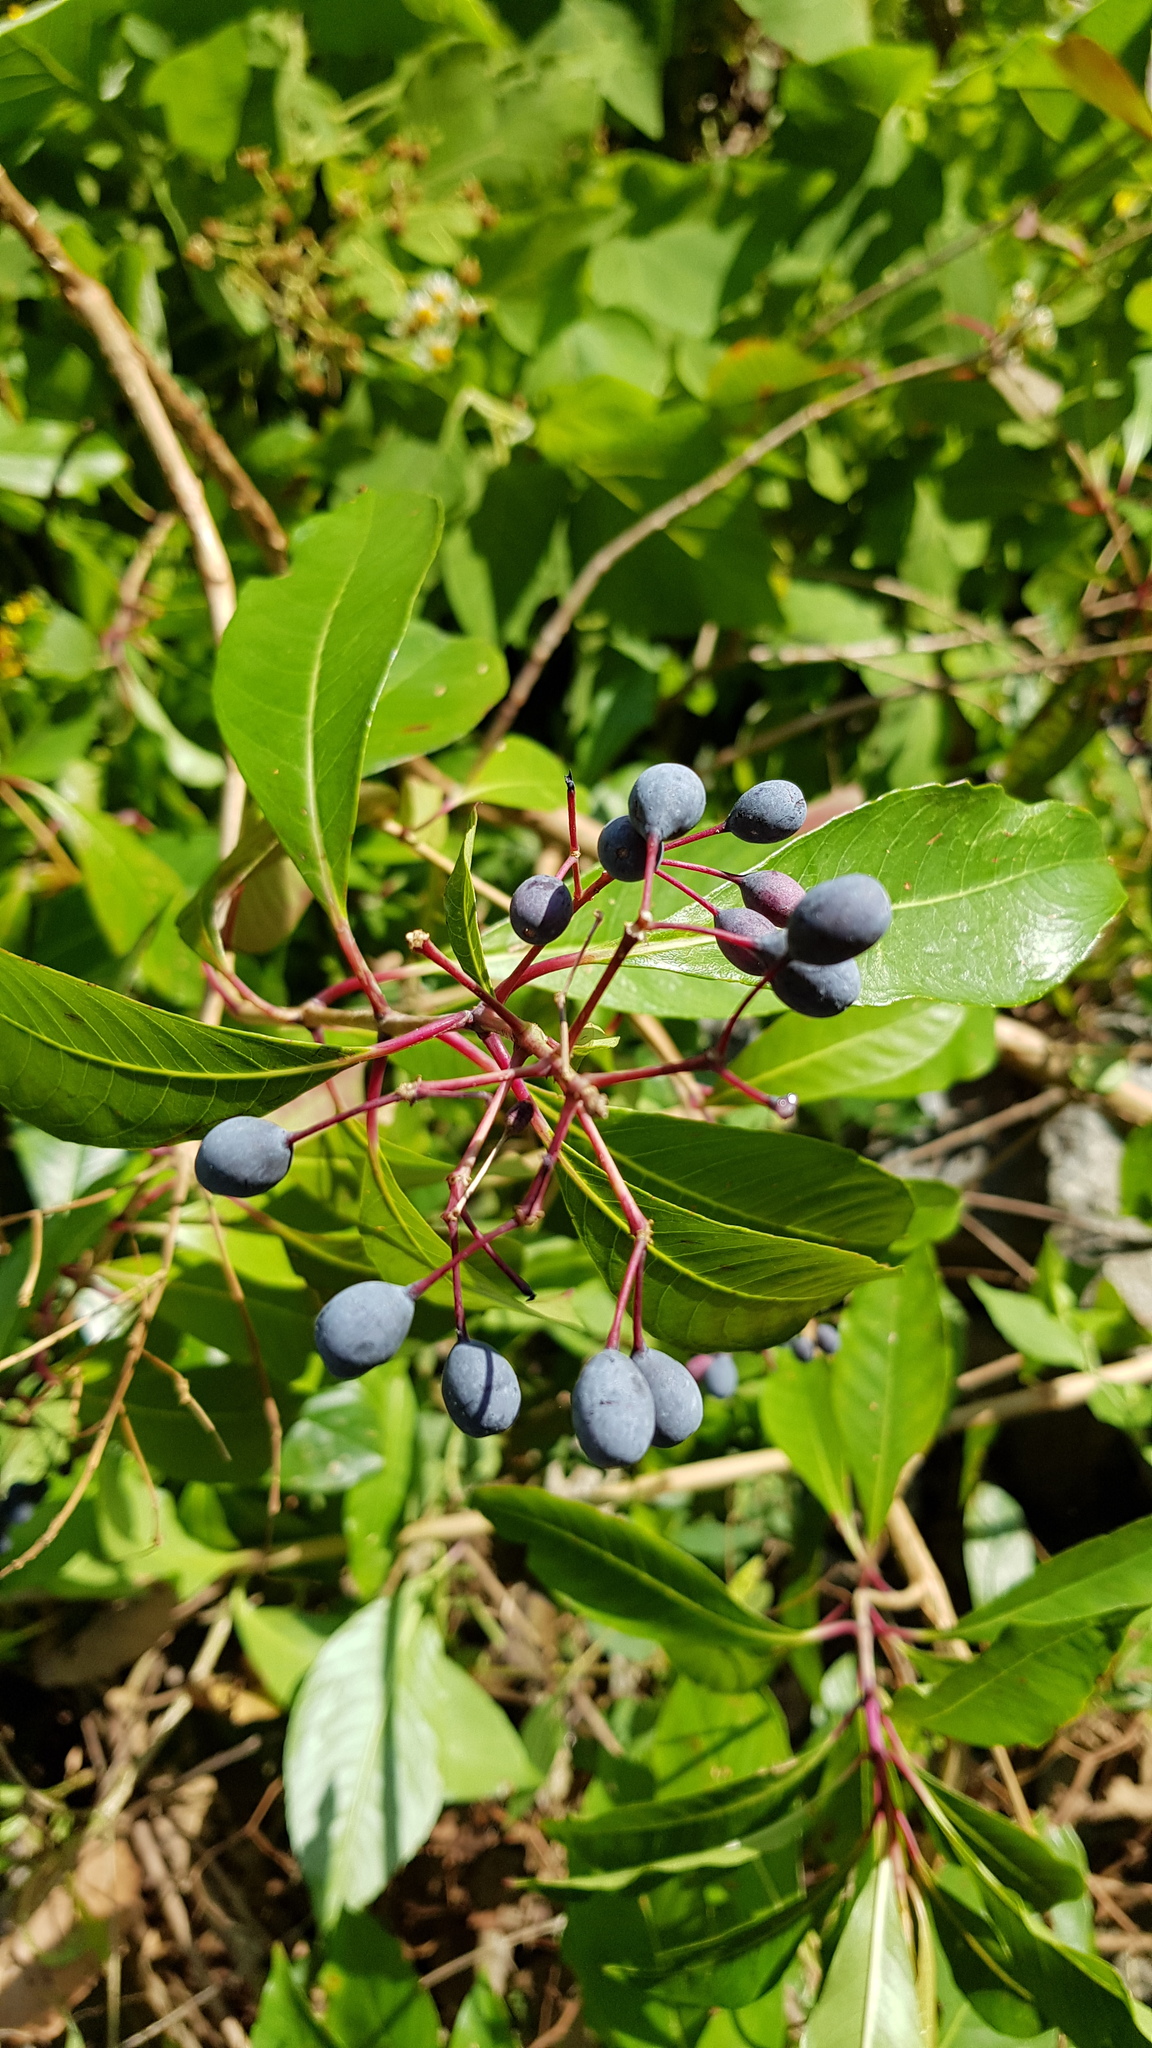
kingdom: Plantae
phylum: Tracheophyta
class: Magnoliopsida
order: Myrtales
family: Onagraceae
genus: Fuchsia
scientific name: Fuchsia arborescens
